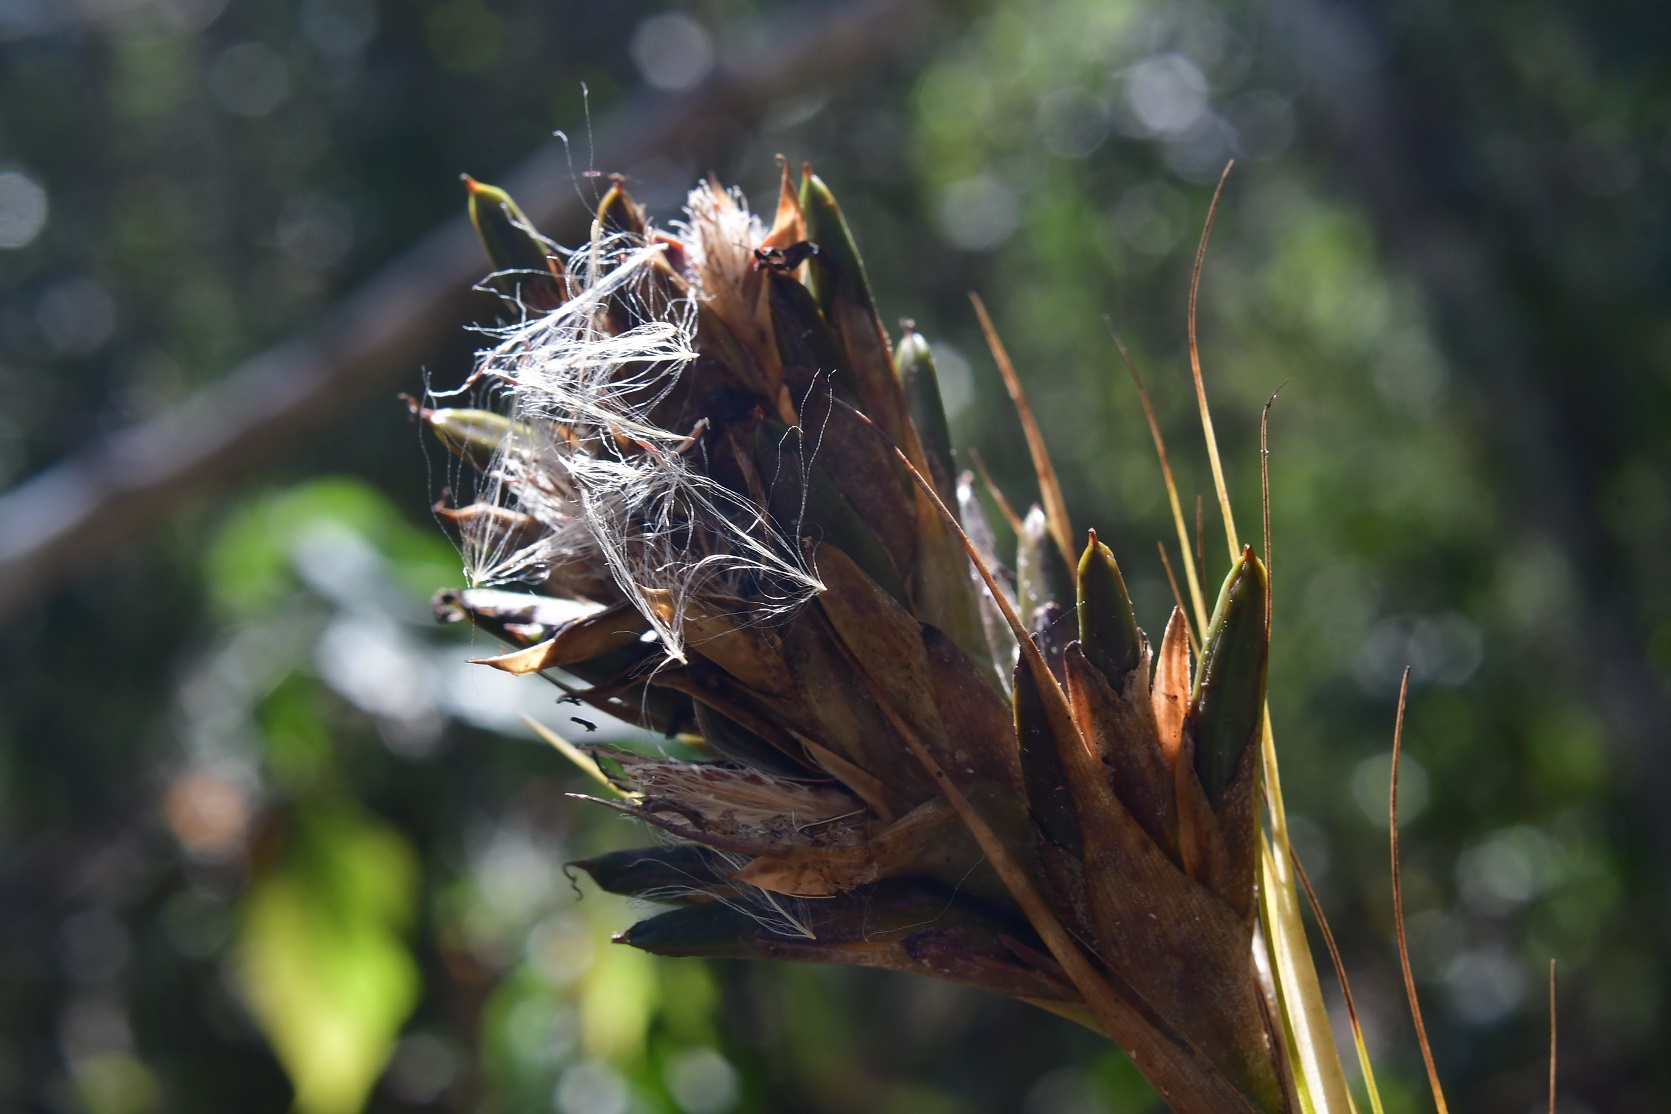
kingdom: Plantae
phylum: Tracheophyta
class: Liliopsida
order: Poales
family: Bromeliaceae
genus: Tillandsia
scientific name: Tillandsia juncea
